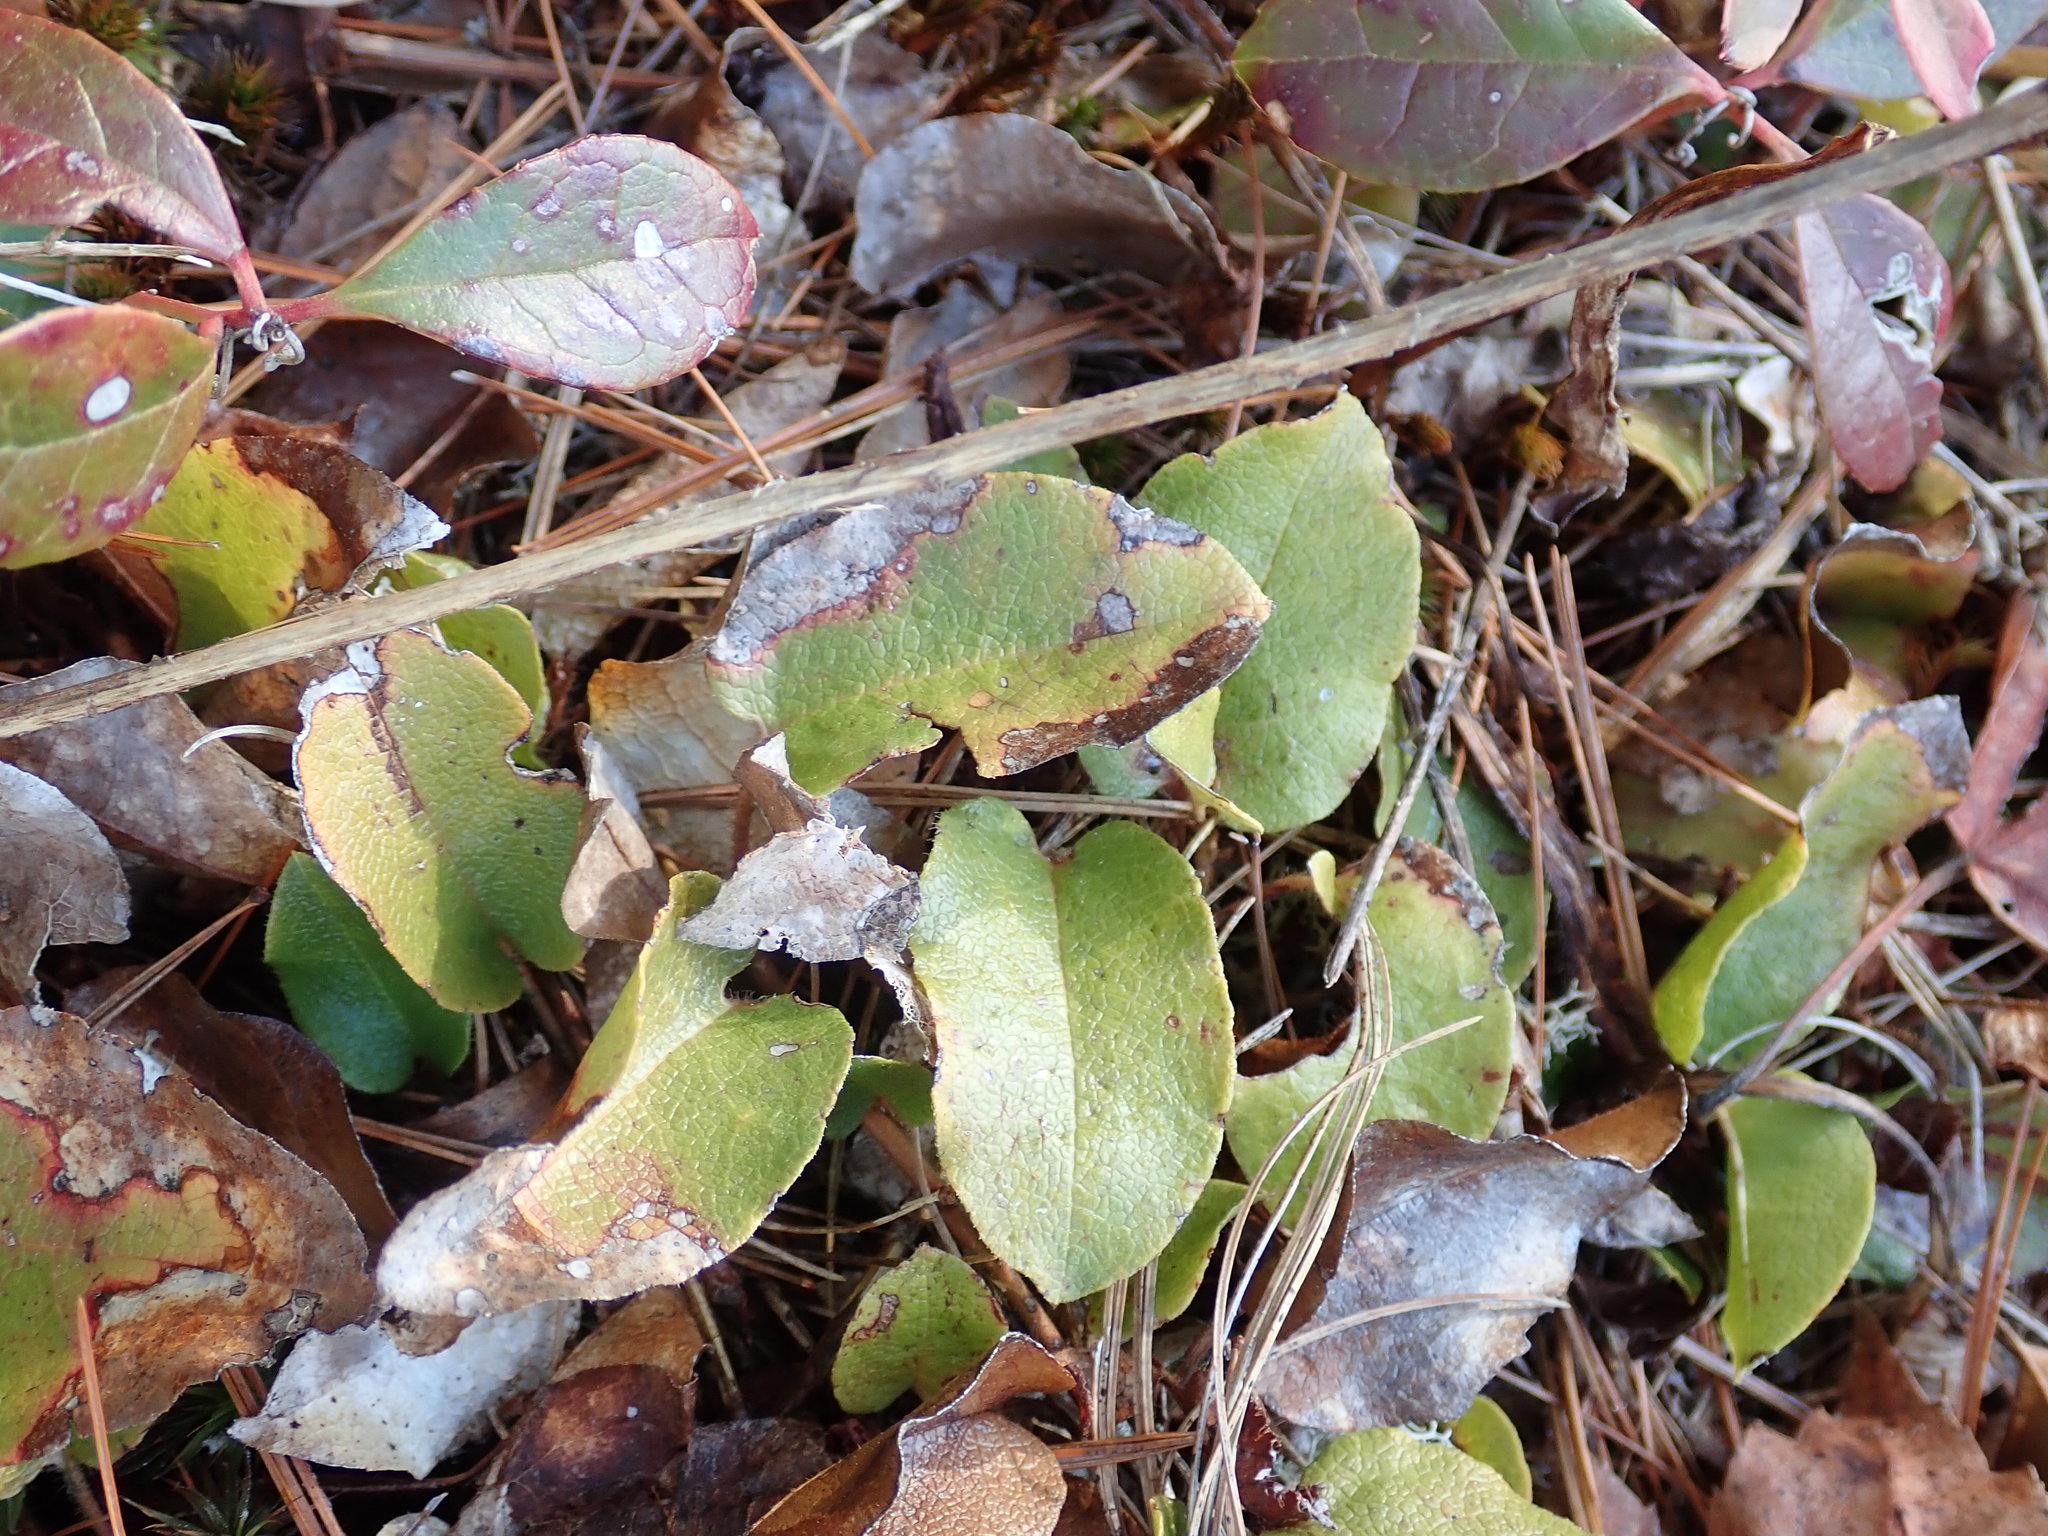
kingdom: Plantae
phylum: Tracheophyta
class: Magnoliopsida
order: Ericales
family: Ericaceae
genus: Epigaea
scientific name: Epigaea repens
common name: Gravelroot
